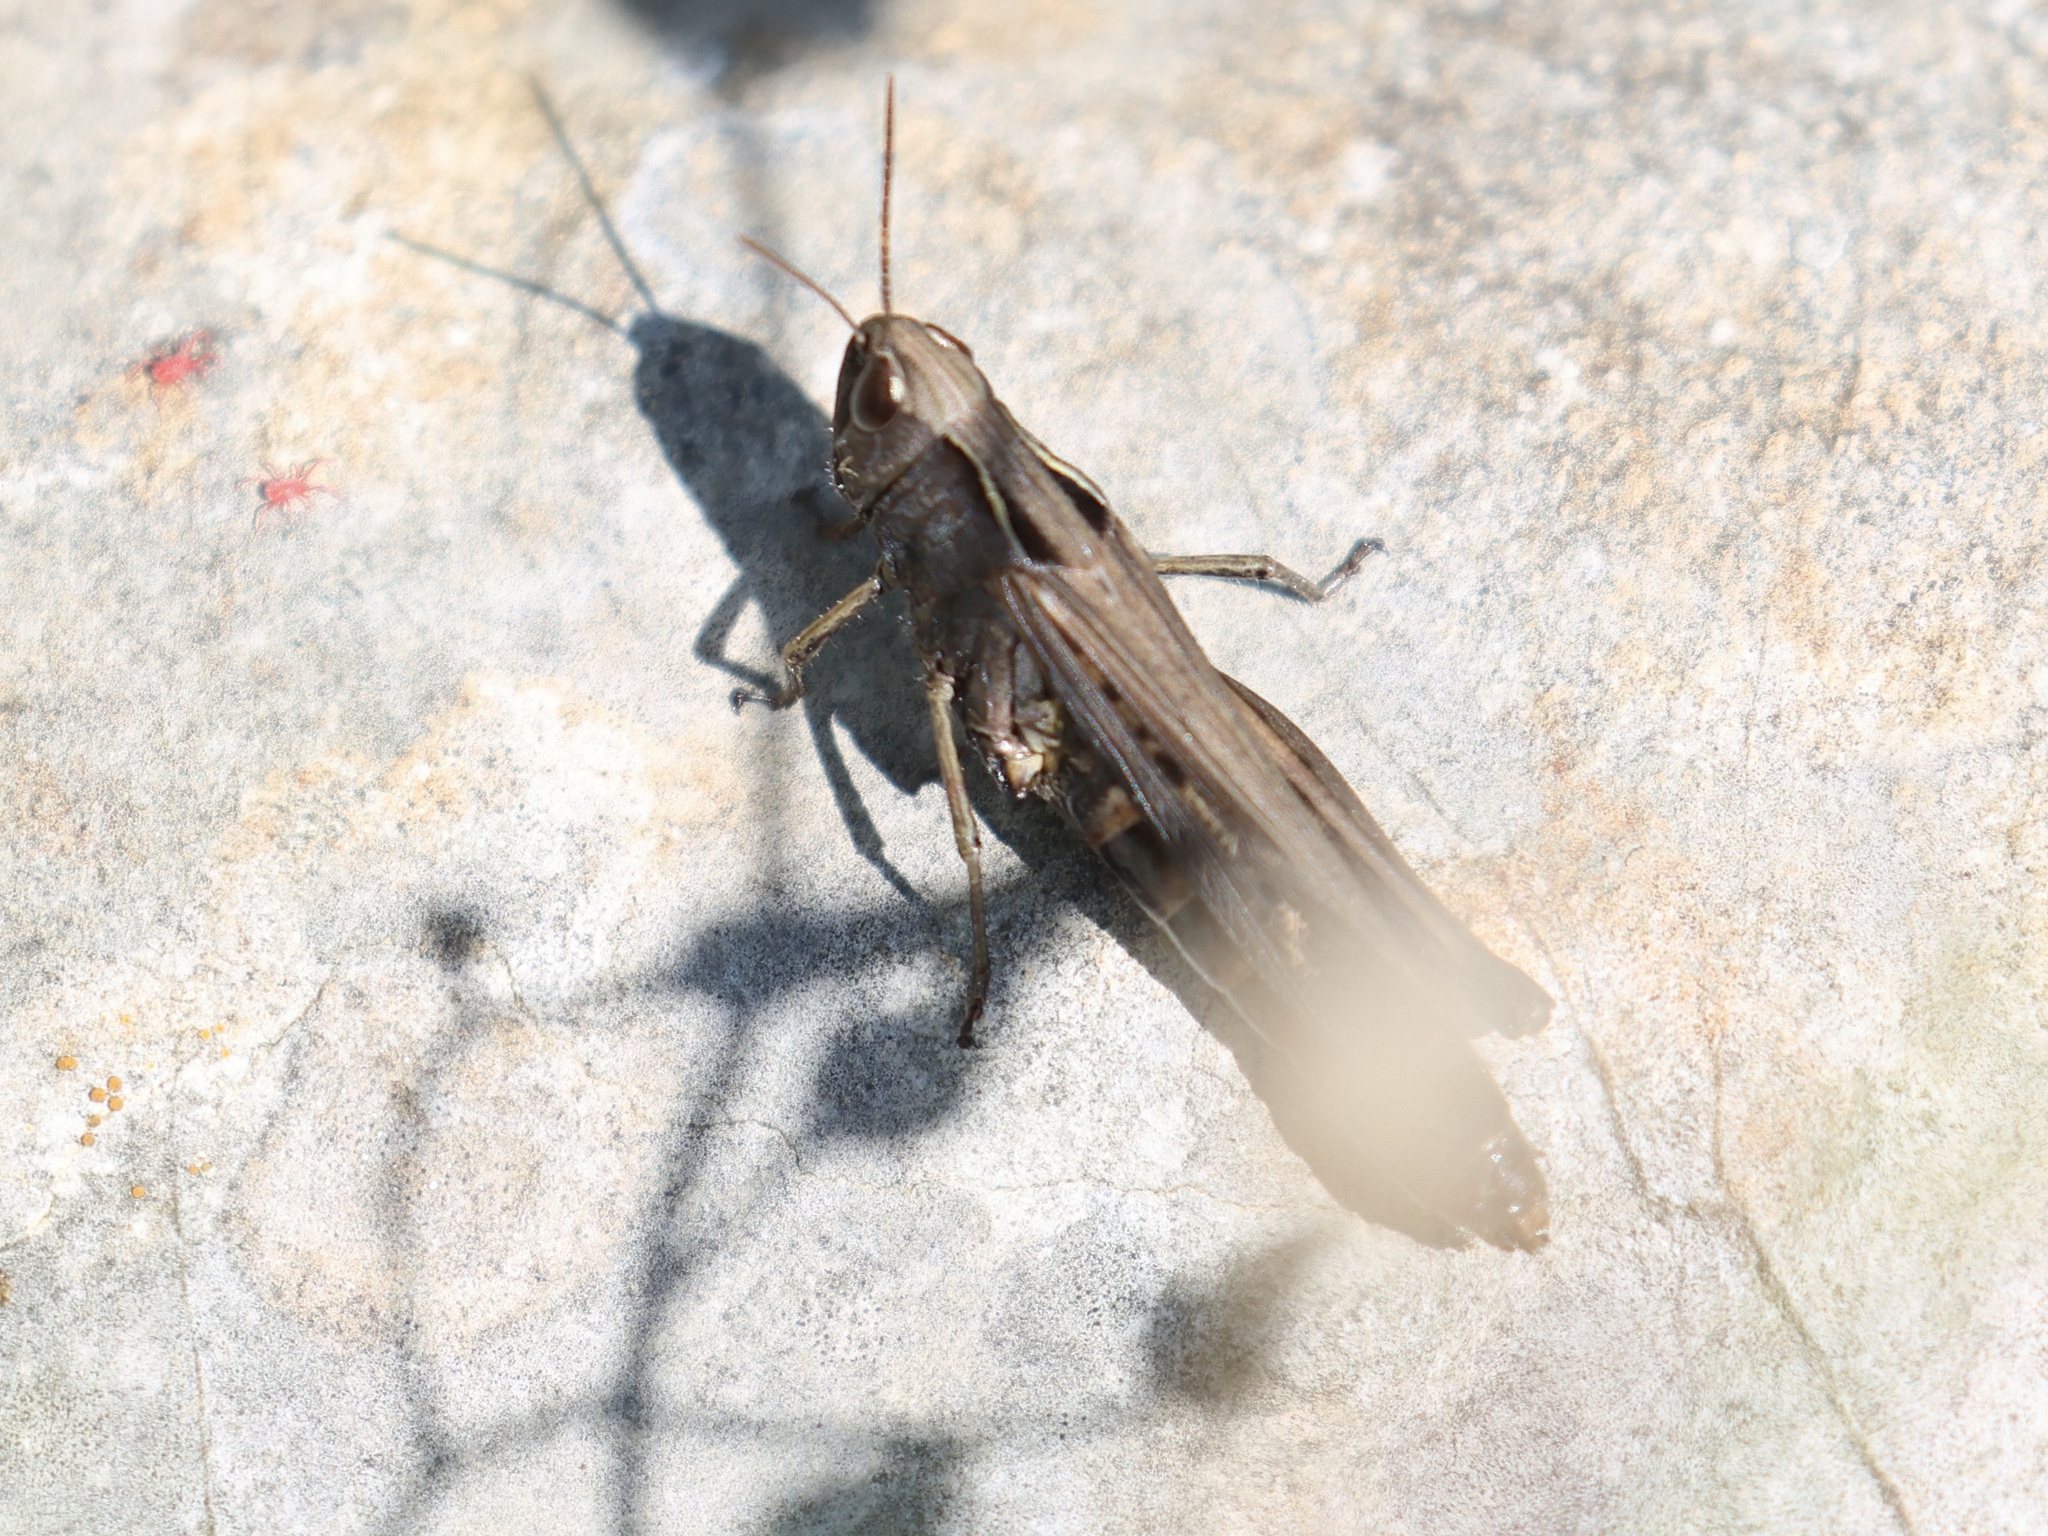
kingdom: Animalia
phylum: Arthropoda
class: Insecta
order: Orthoptera
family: Acrididae
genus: Omocestus
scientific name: Omocestus rufipes
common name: Woodland grasshopper
